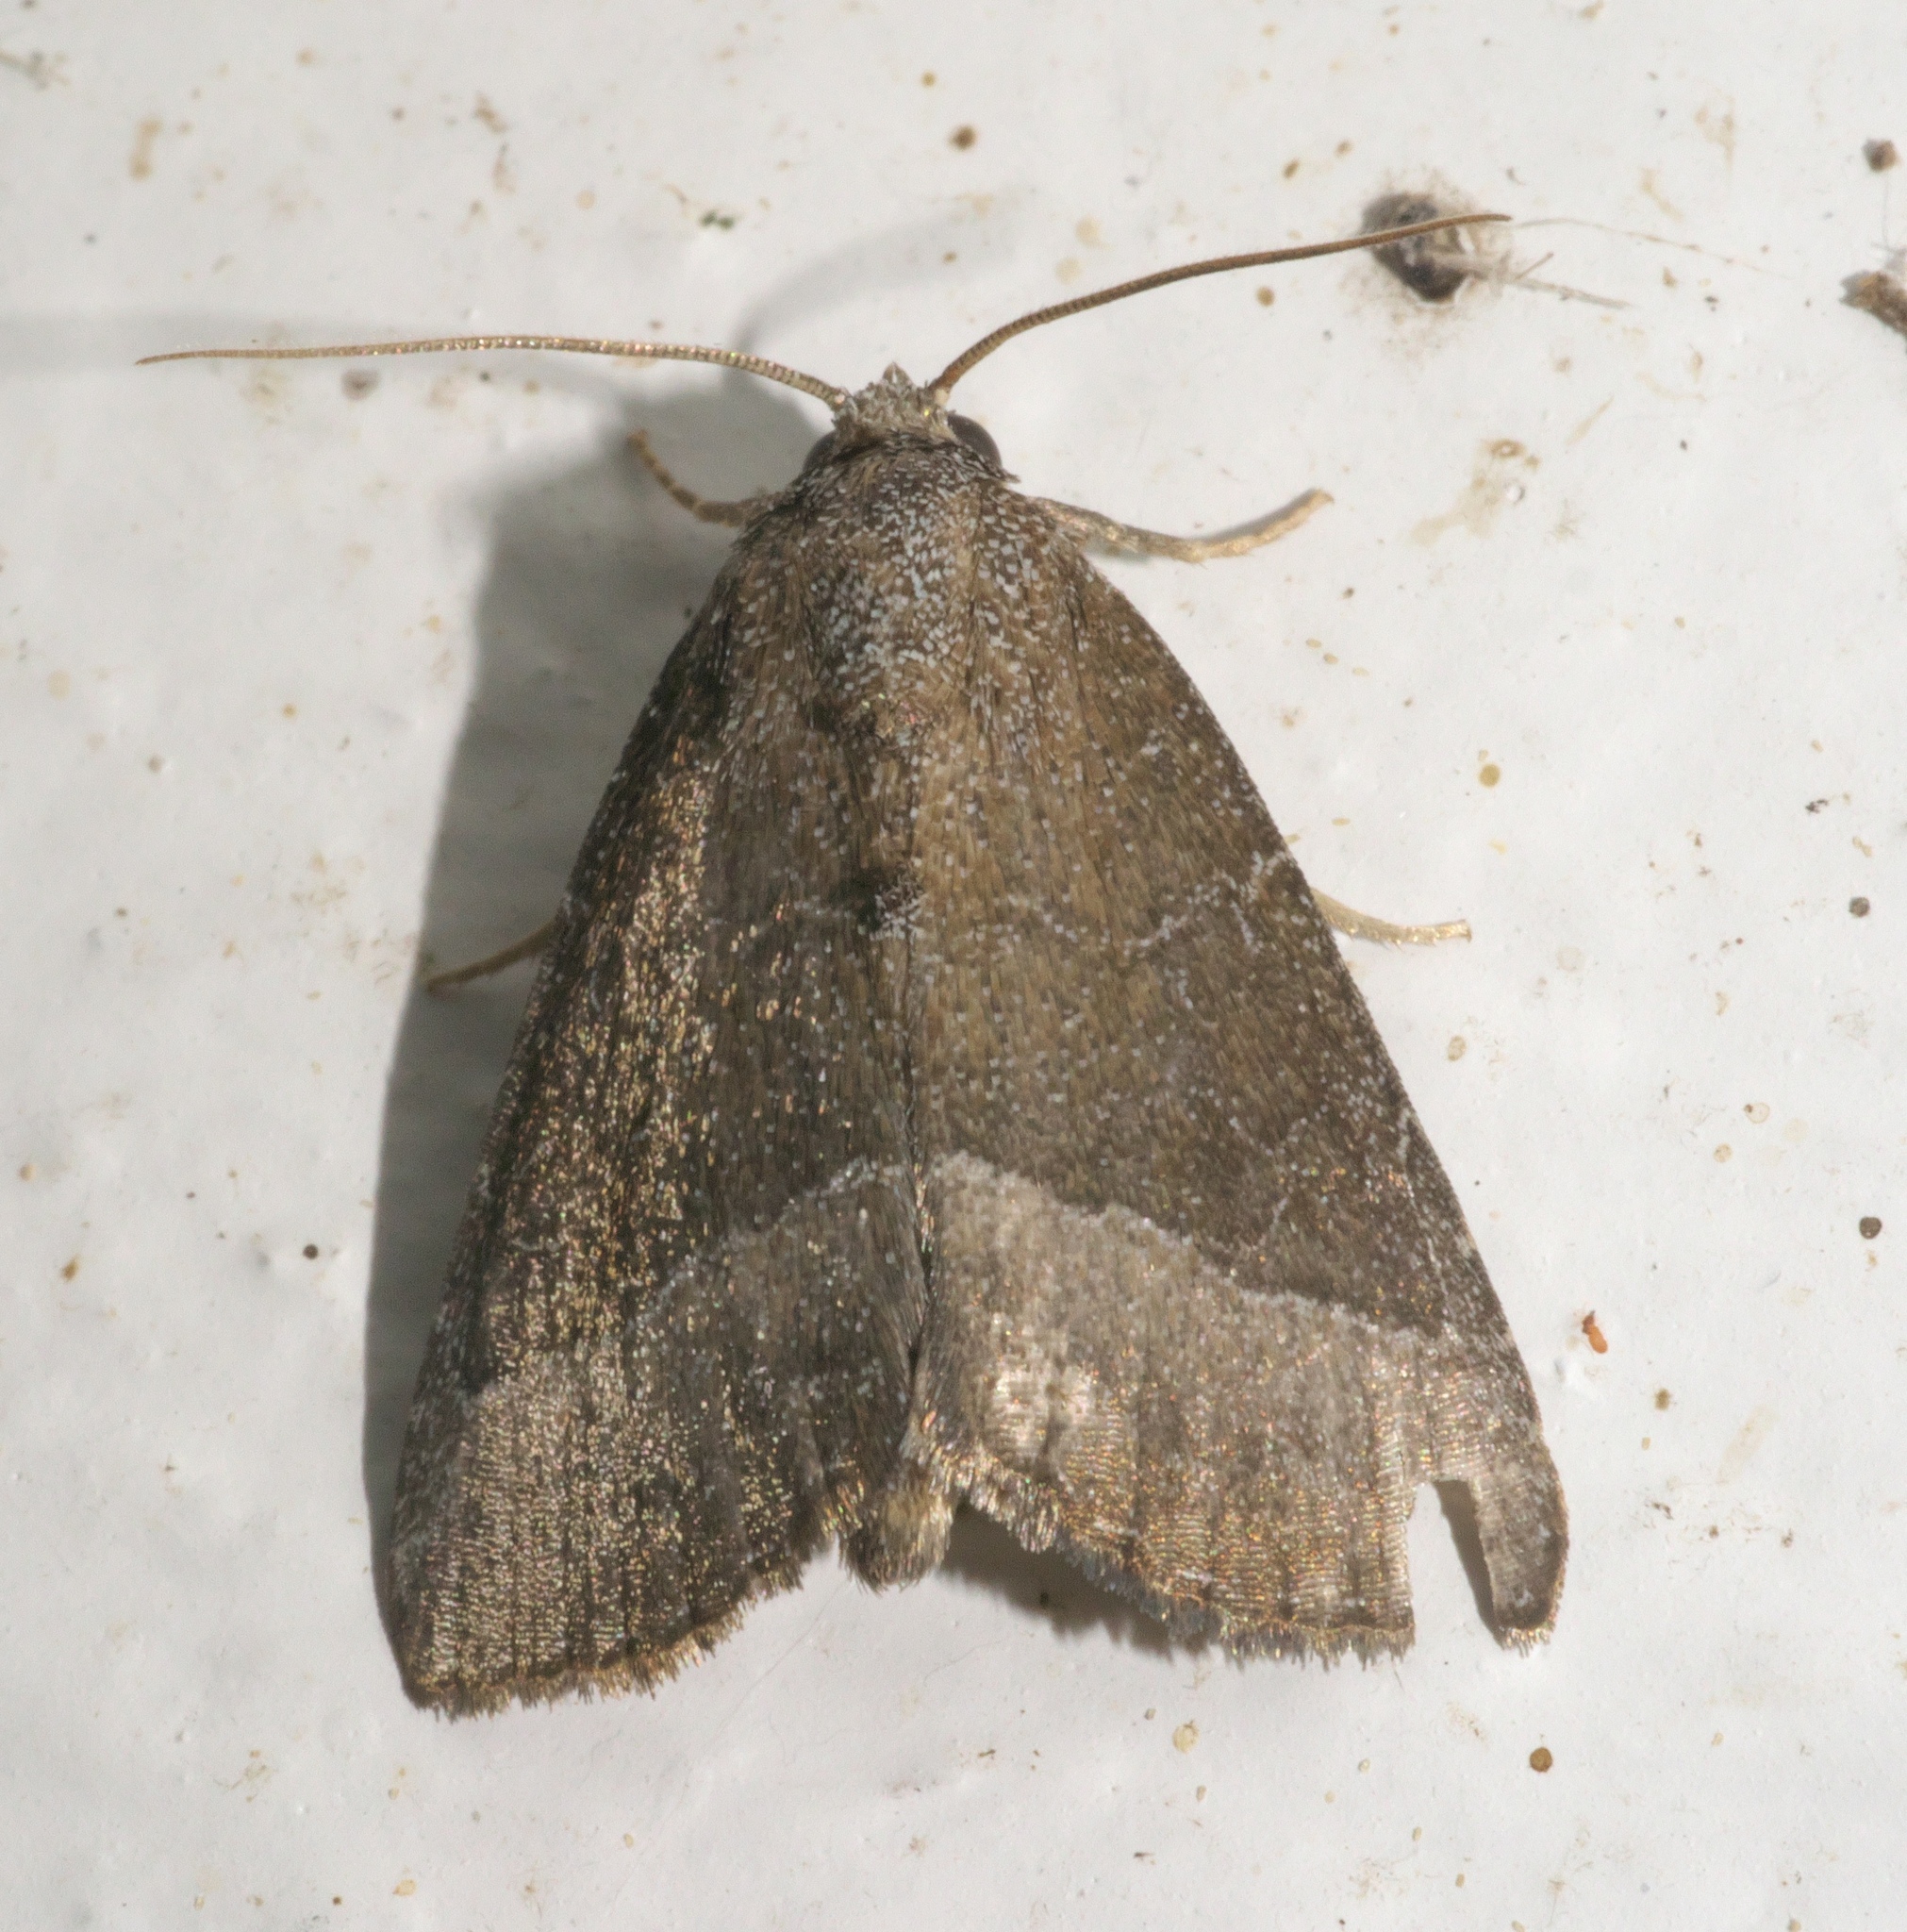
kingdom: Animalia
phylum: Arthropoda
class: Insecta
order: Lepidoptera
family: Noctuidae
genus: Ogdoconta
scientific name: Ogdoconta cinereola
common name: Common pinkband
